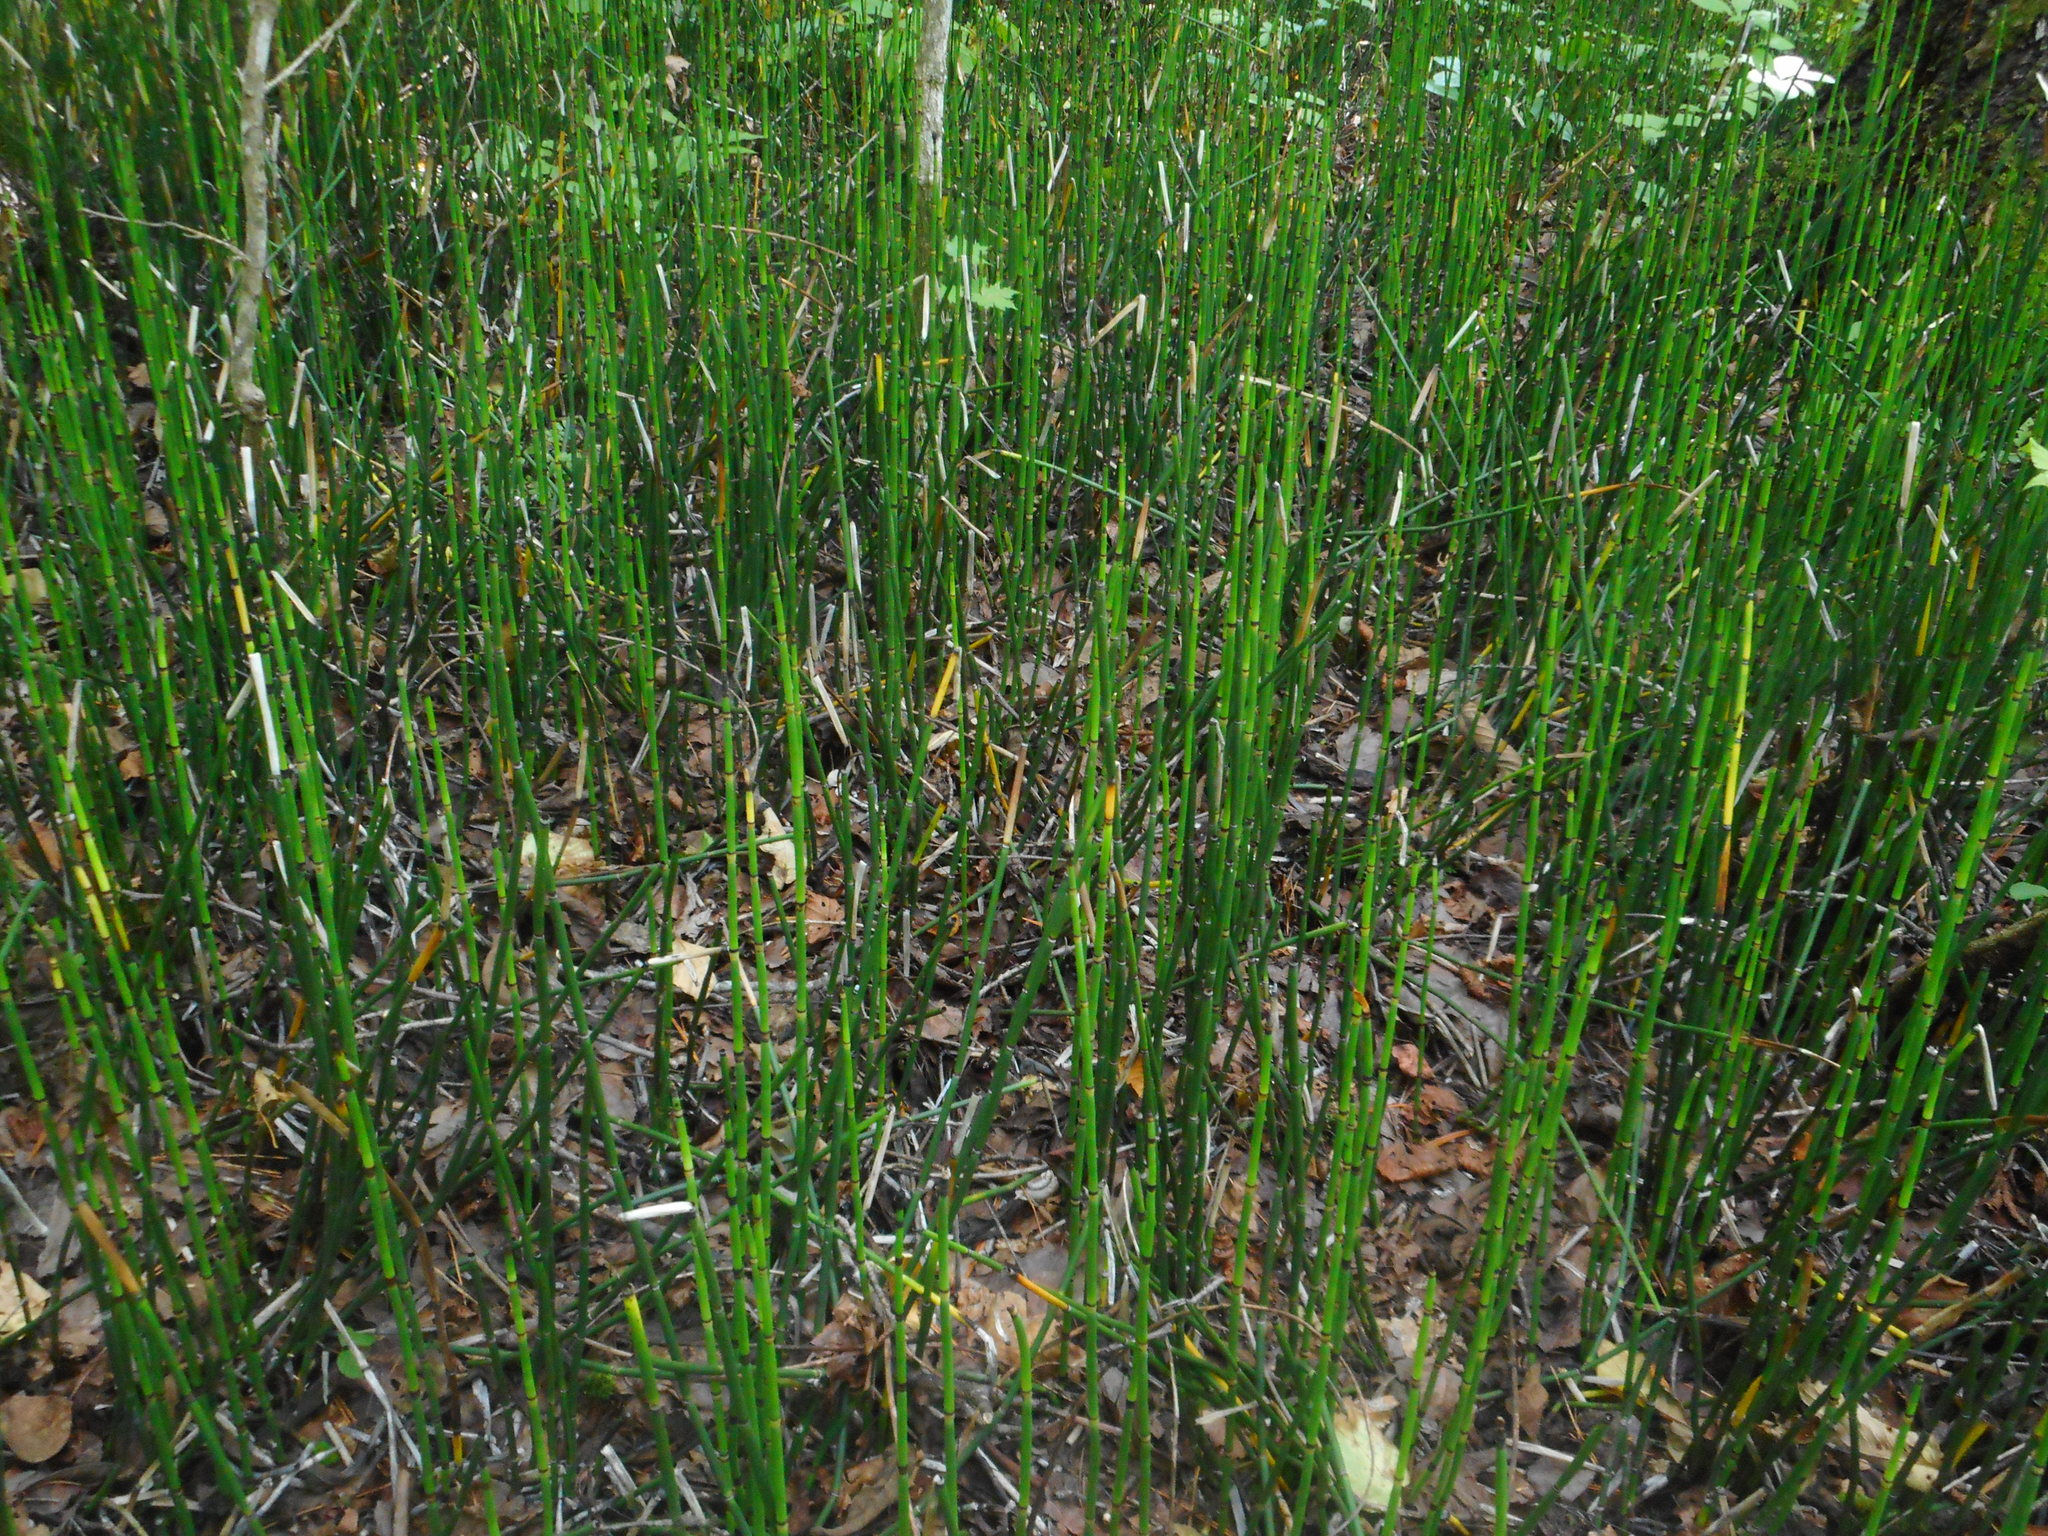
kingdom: Plantae
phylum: Tracheophyta
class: Polypodiopsida
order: Equisetales
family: Equisetaceae
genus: Equisetum
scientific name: Equisetum hyemale
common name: Rough horsetail
